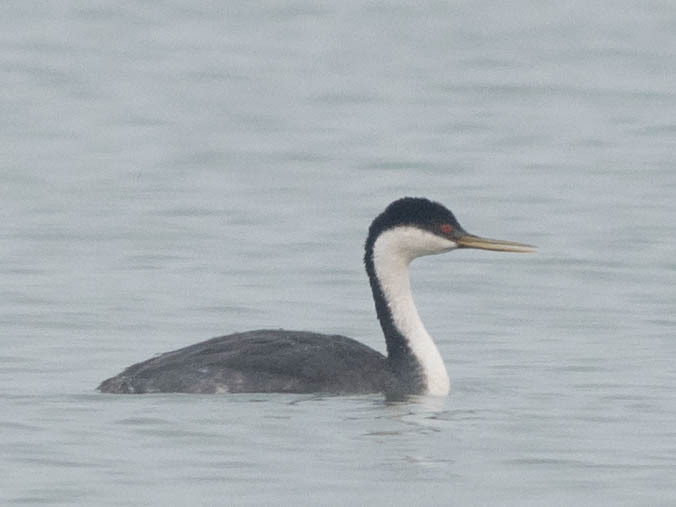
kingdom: Animalia
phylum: Chordata
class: Aves
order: Podicipediformes
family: Podicipedidae
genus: Aechmophorus
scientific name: Aechmophorus occidentalis
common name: Western grebe
